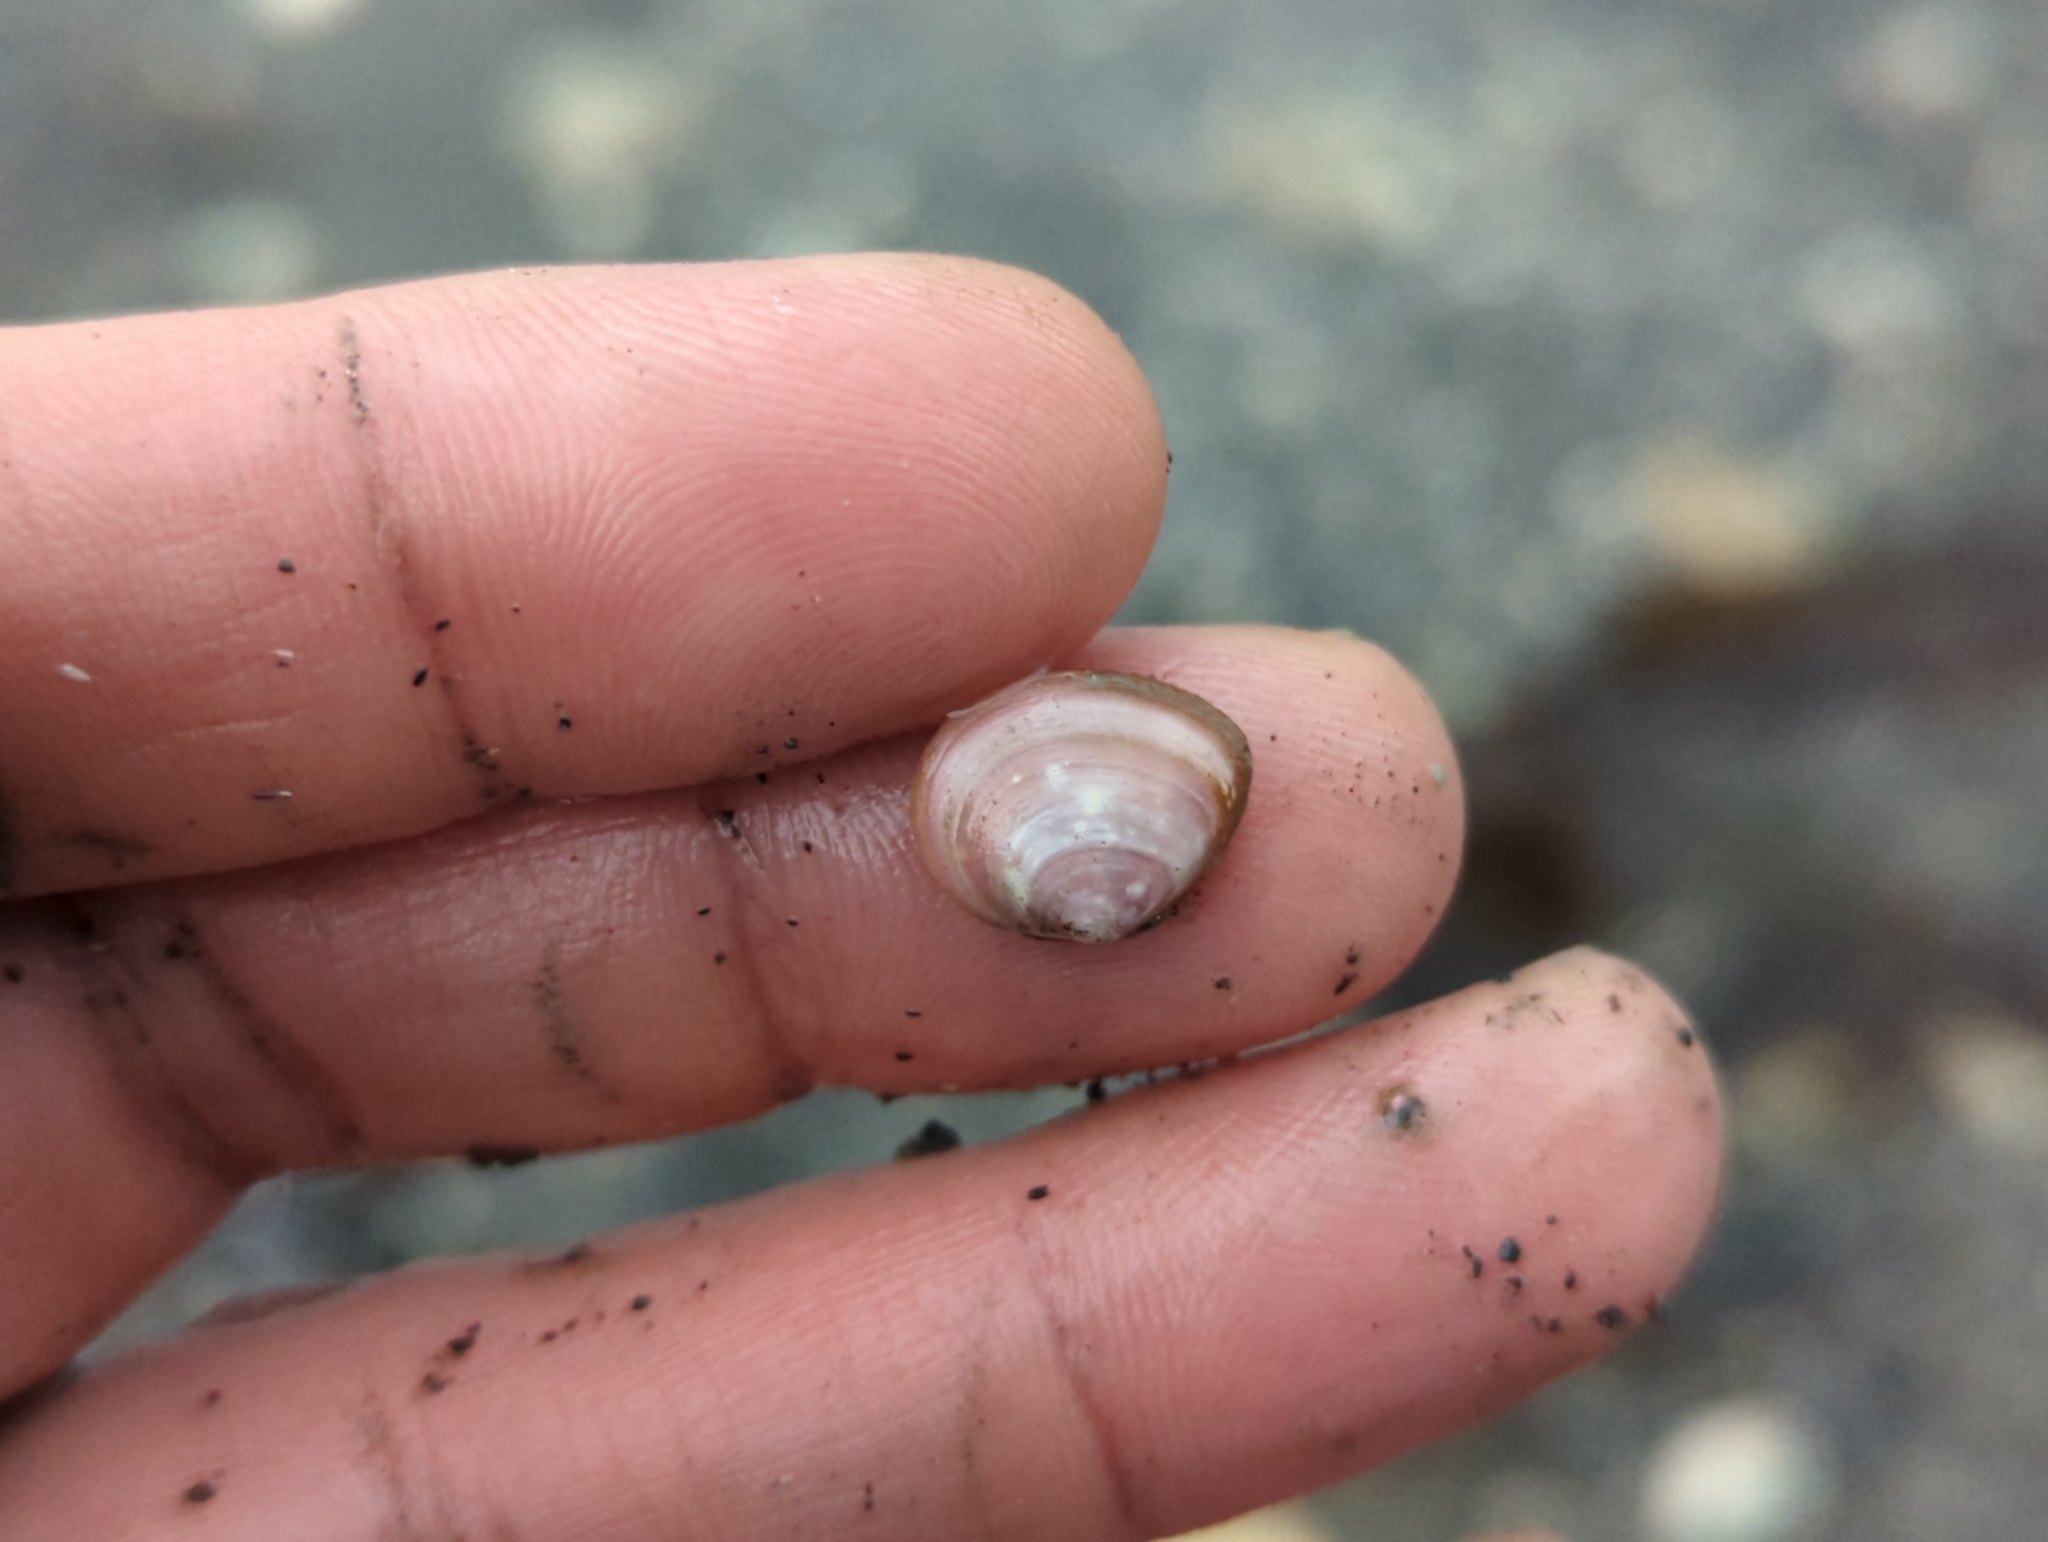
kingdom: Animalia
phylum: Mollusca
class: Bivalvia
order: Cardiida
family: Tellinidae
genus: Macoma
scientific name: Macoma balthica
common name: Baltic tellin
